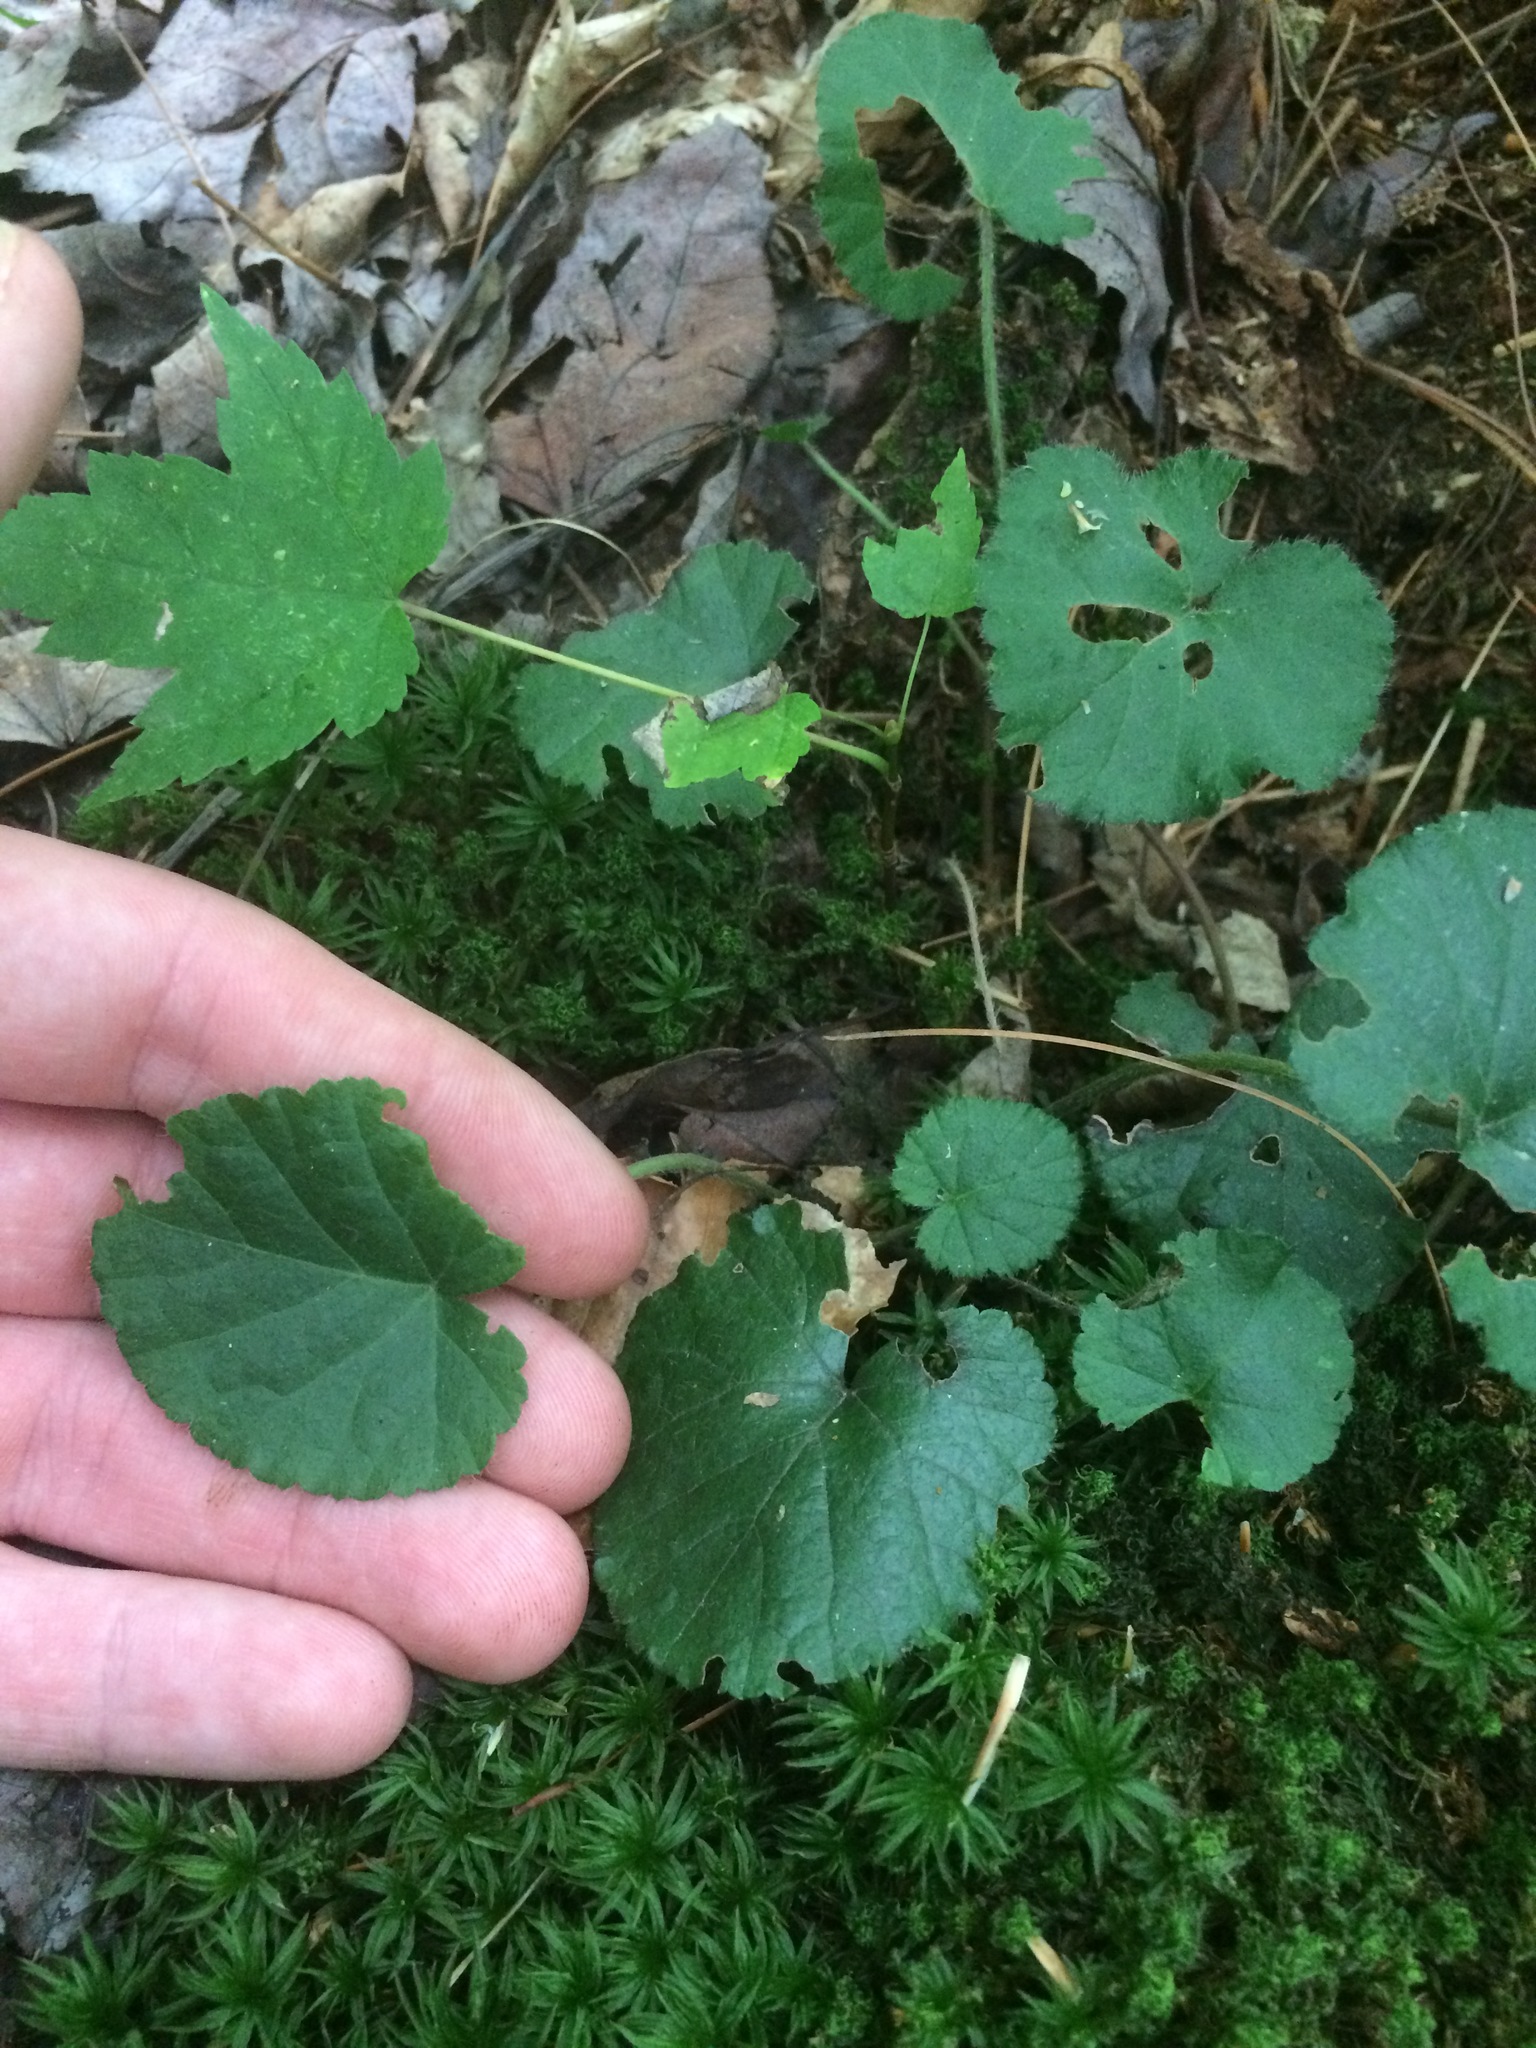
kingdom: Plantae
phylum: Tracheophyta
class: Magnoliopsida
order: Rosales
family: Rosaceae
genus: Dalibarda
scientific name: Dalibarda repens
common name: Dewdrop
